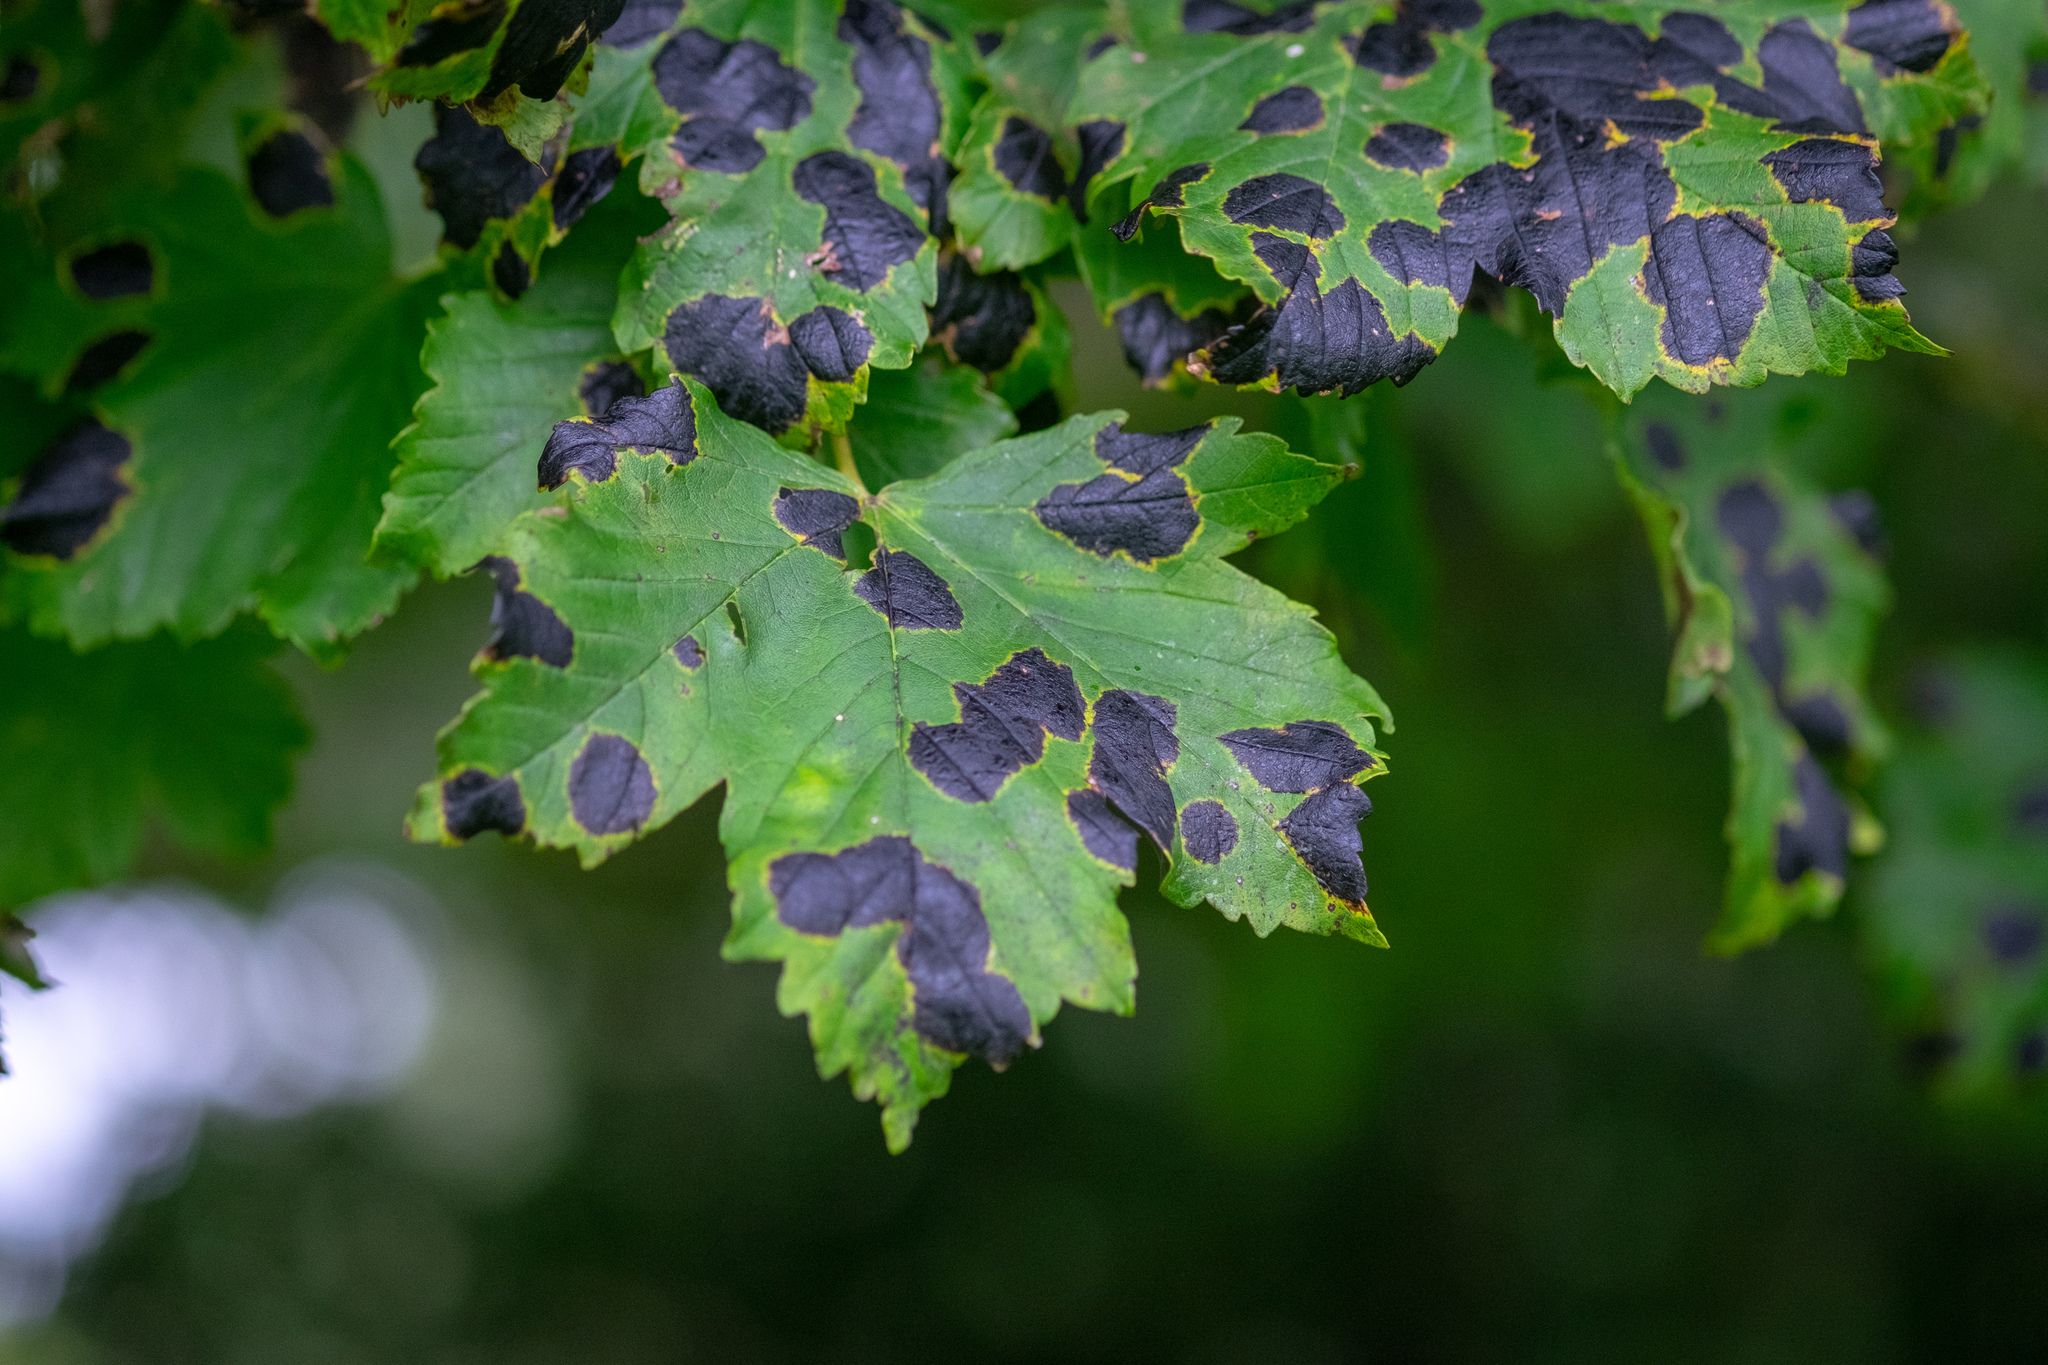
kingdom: Fungi
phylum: Ascomycota
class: Leotiomycetes
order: Rhytismatales
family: Rhytismataceae
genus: Rhytisma
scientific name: Rhytisma acerinum
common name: European tar spot
